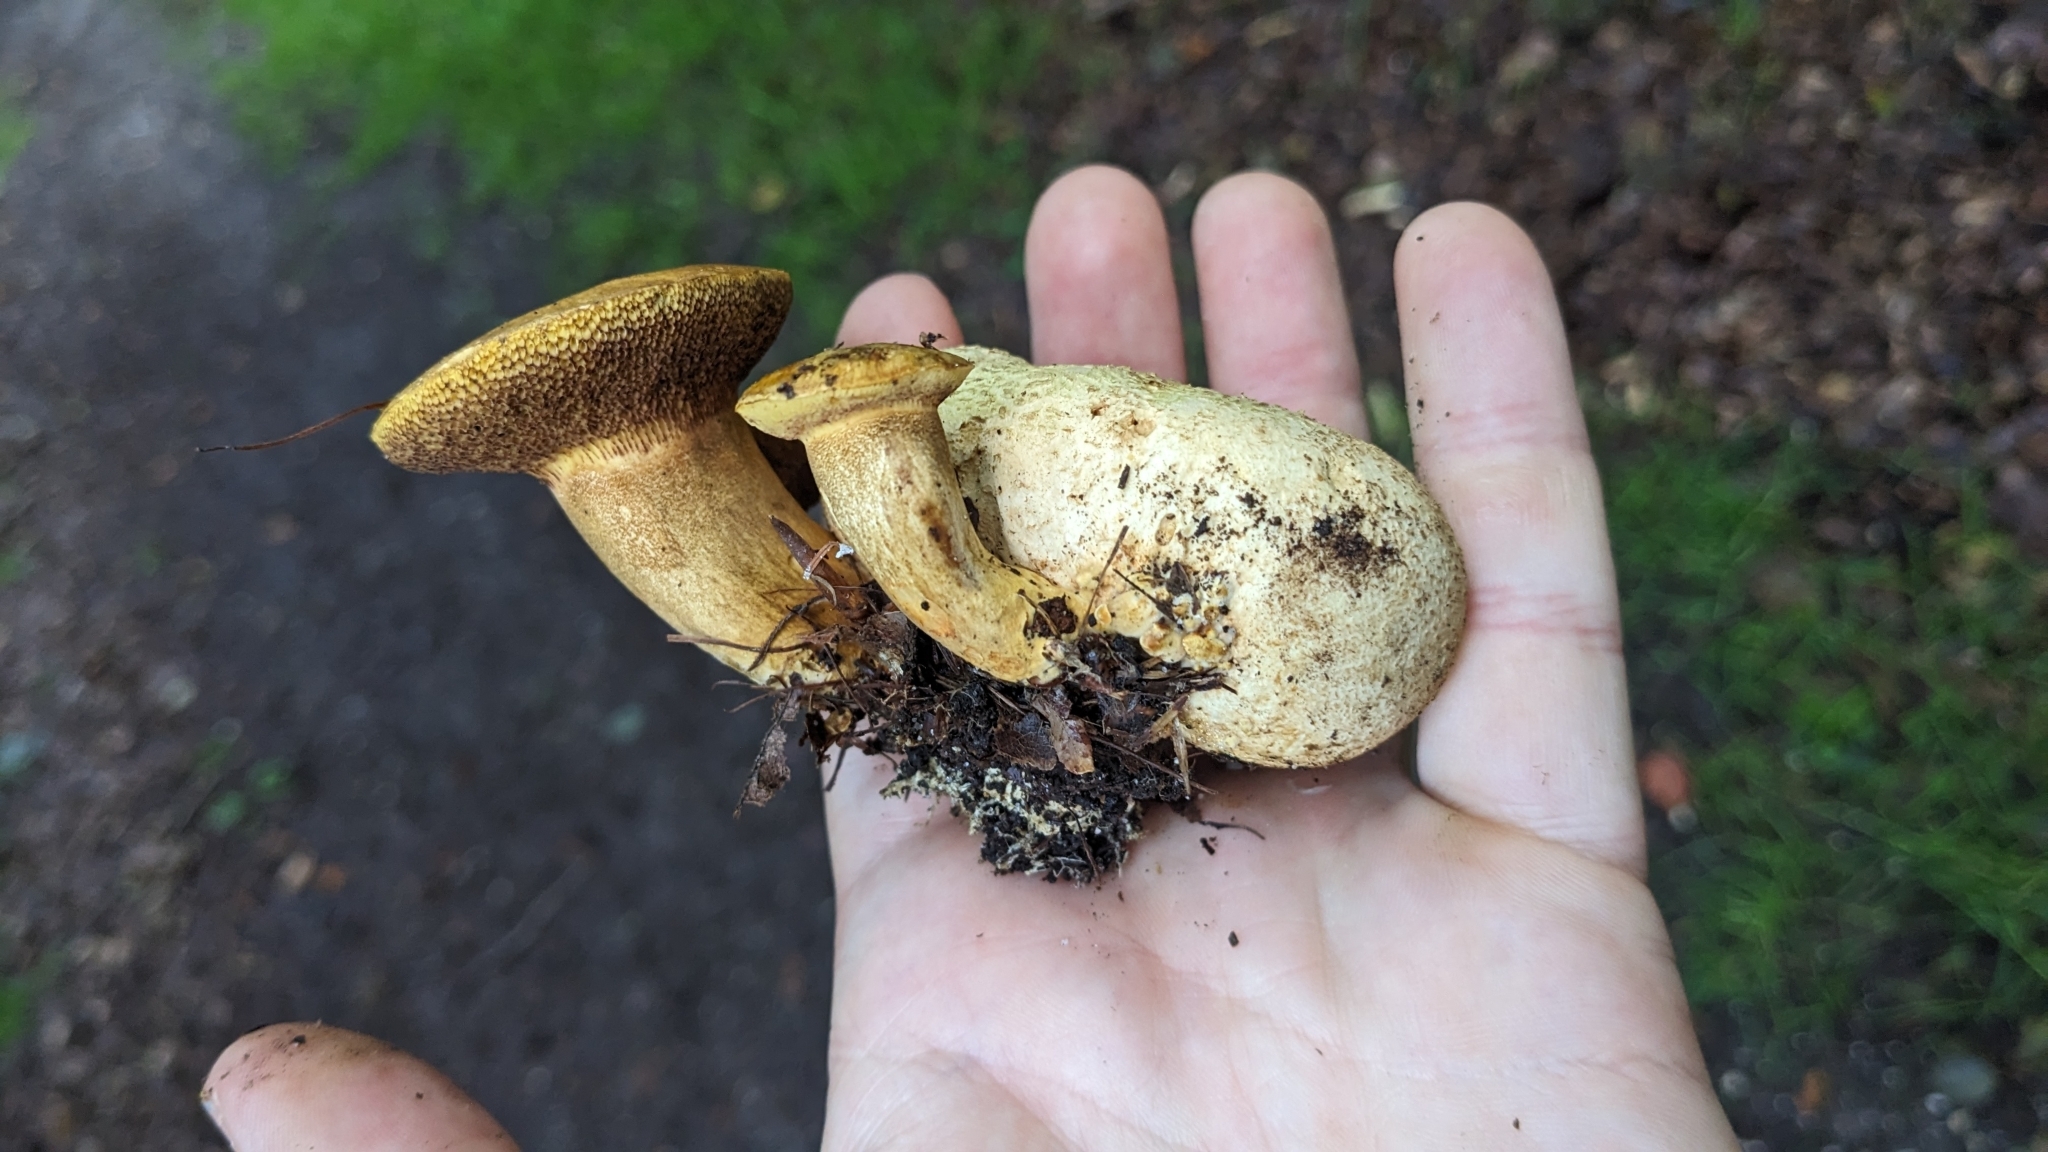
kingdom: Fungi
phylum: Basidiomycota
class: Agaricomycetes
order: Boletales
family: Boletaceae
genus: Pseudoboletus
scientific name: Pseudoboletus parasiticus
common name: Parasitic bolete
